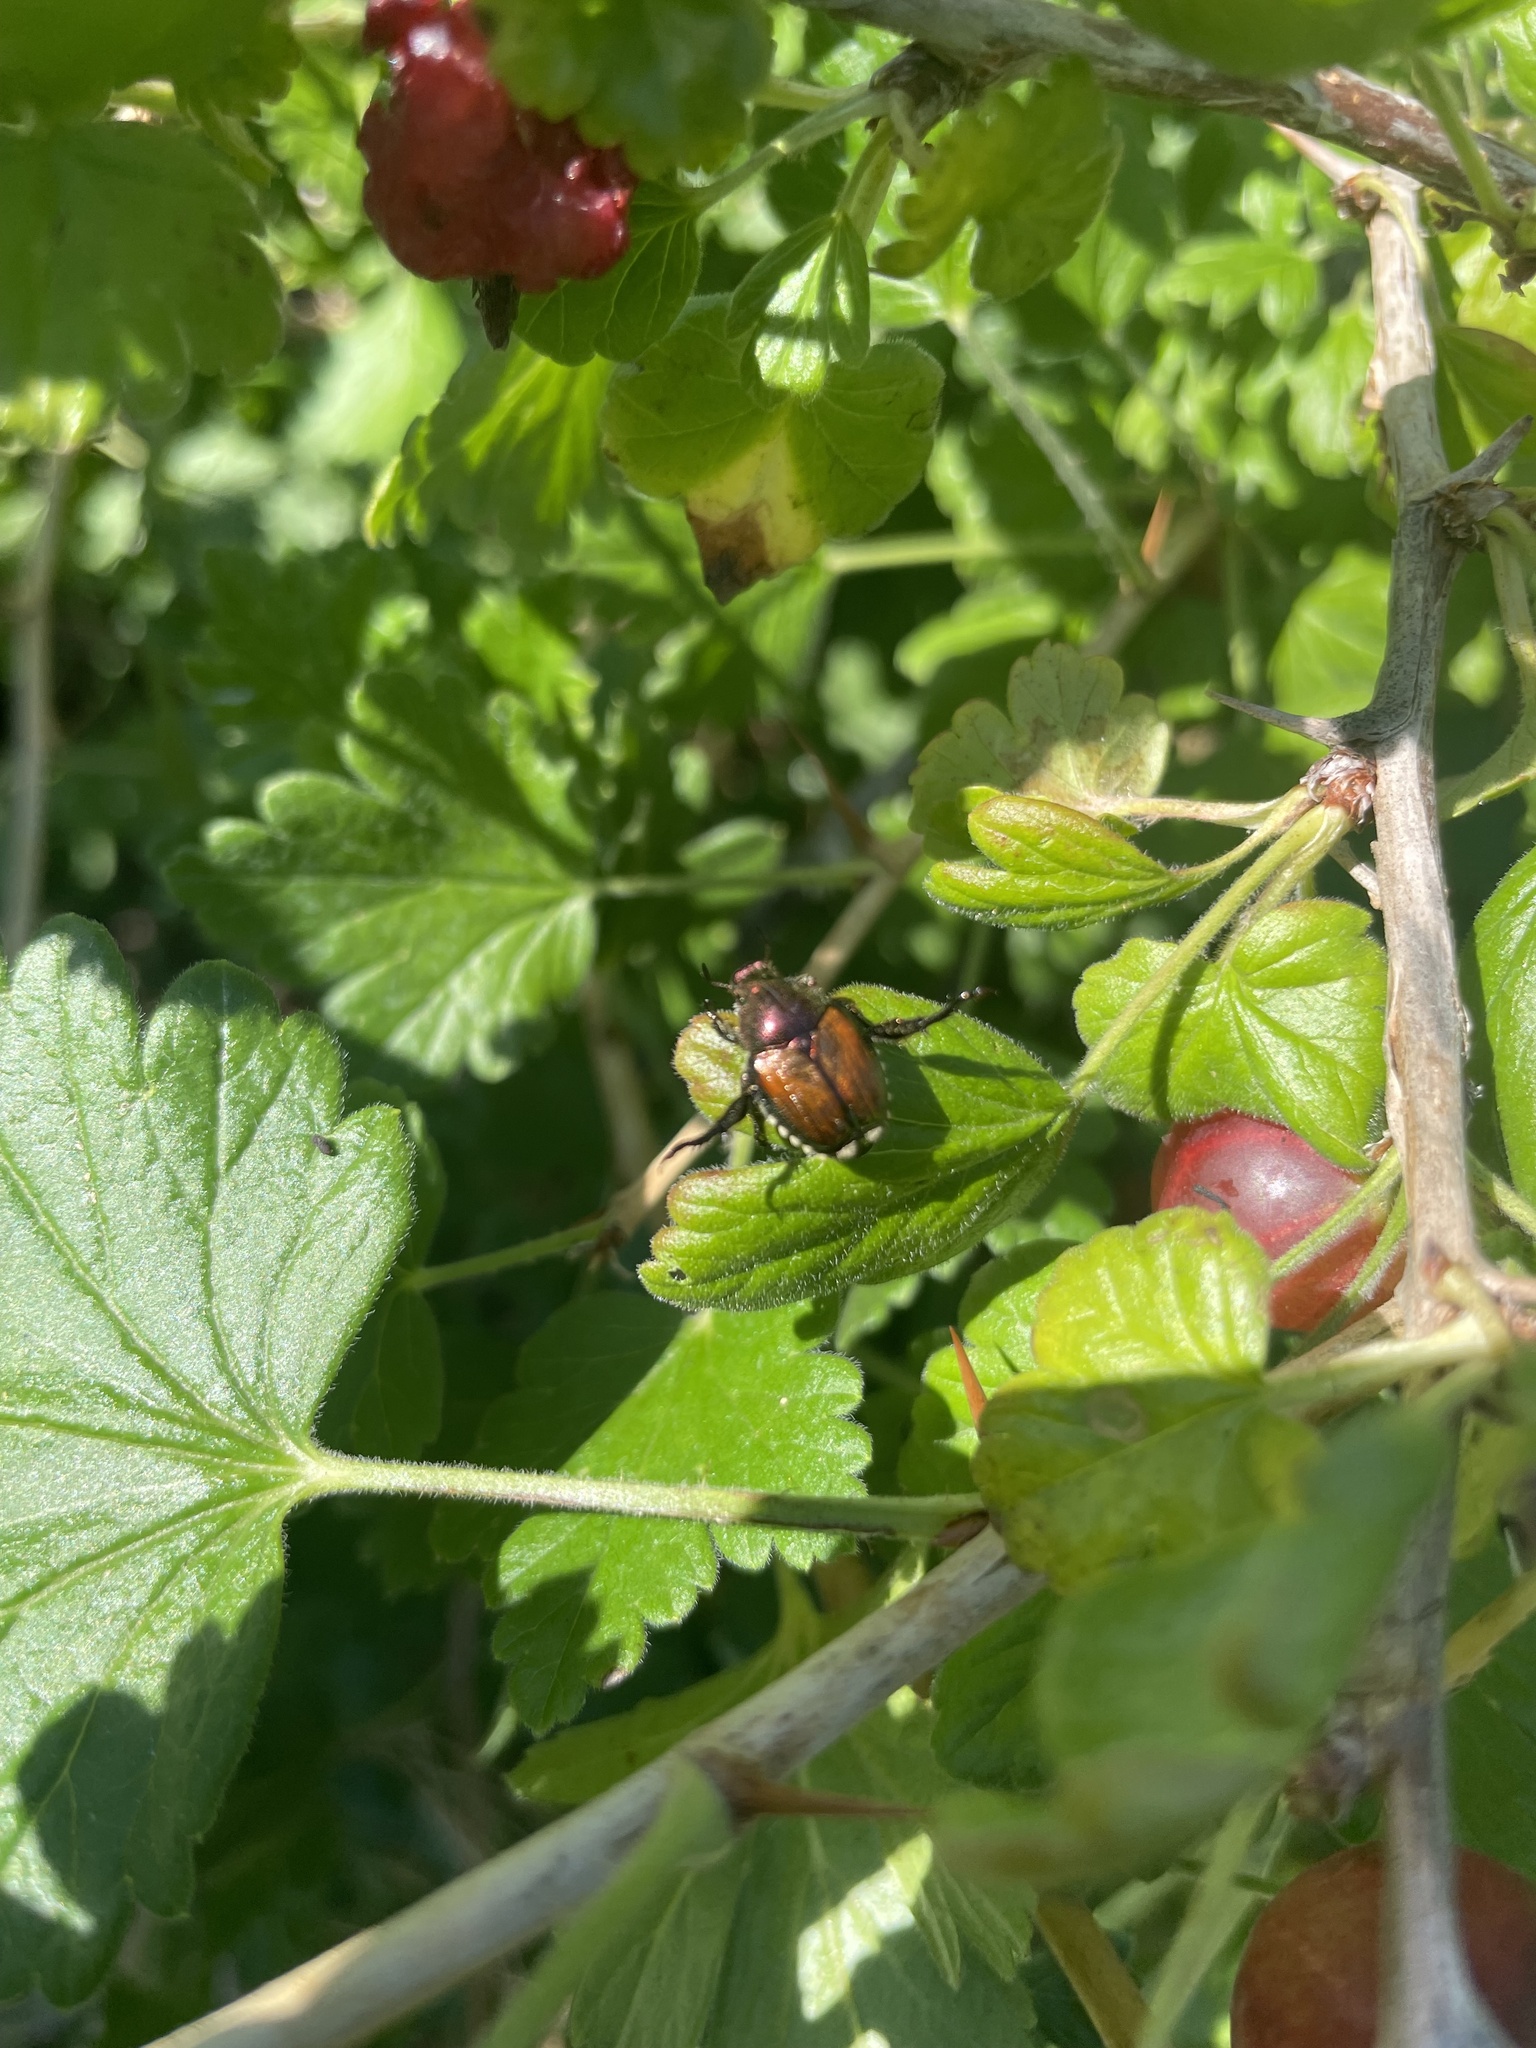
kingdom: Animalia
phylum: Arthropoda
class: Insecta
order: Coleoptera
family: Scarabaeidae
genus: Popillia
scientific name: Popillia japonica
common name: Japanese beetle
